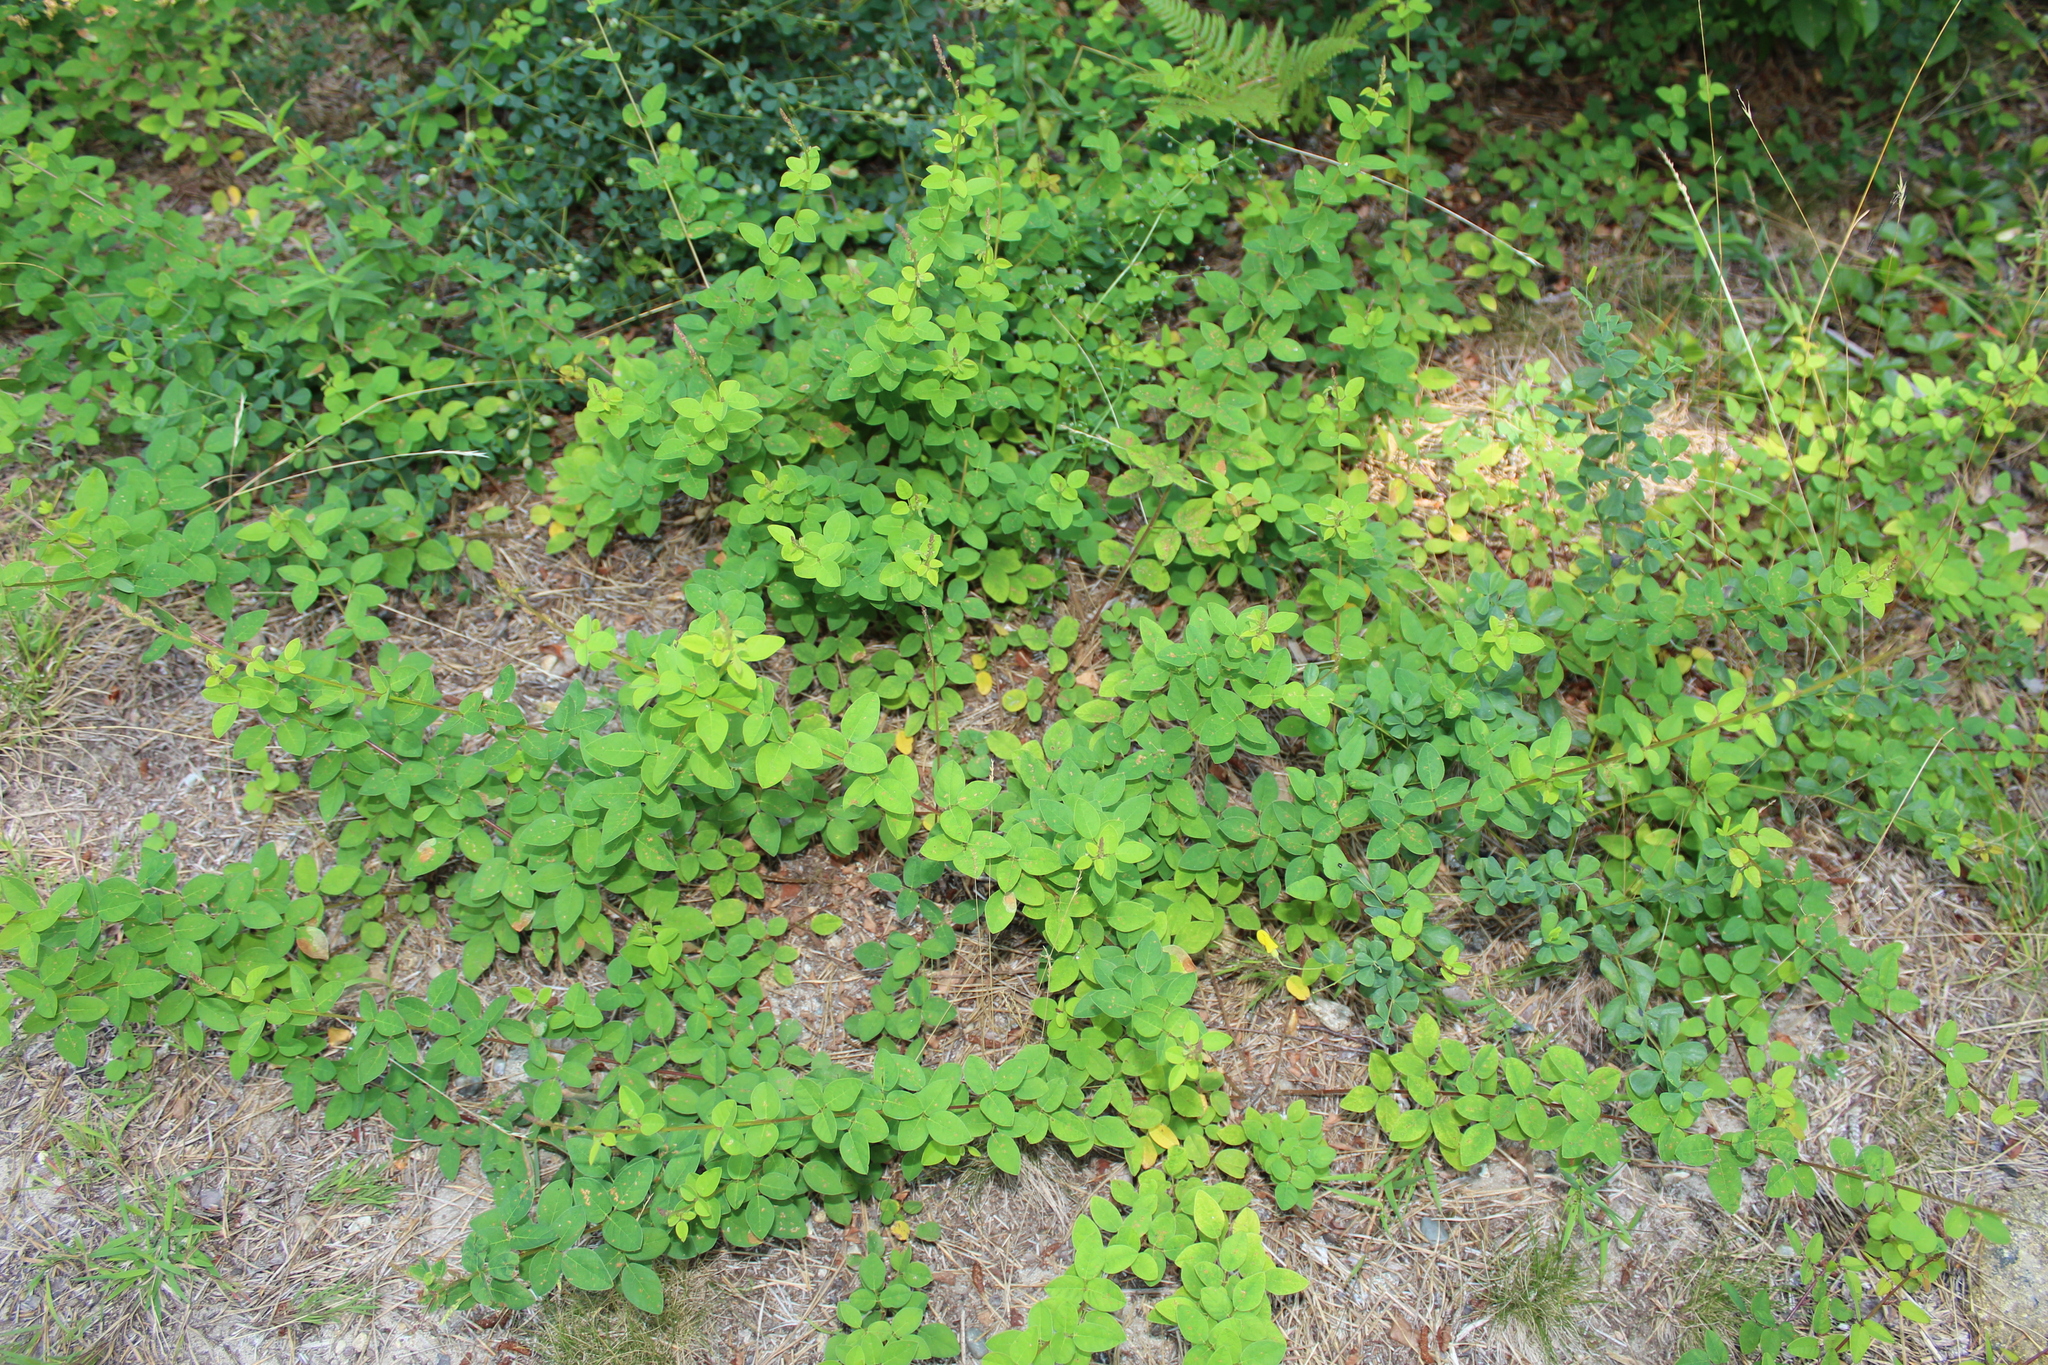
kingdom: Plantae
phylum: Tracheophyta
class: Magnoliopsida
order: Fabales
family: Fabaceae
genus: Desmodium
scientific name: Desmodium marilandicum
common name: Maryland tick-trefoil
